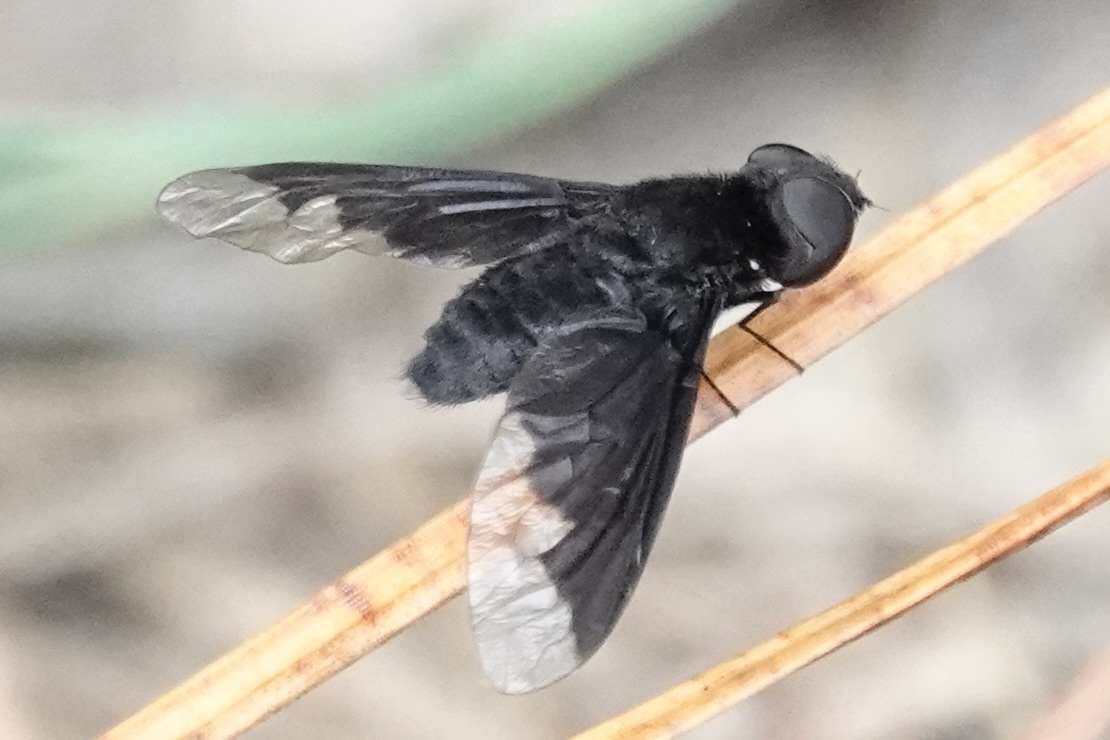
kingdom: Animalia
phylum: Arthropoda
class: Insecta
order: Diptera
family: Bombyliidae
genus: Anthrax
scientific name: Anthrax analis
